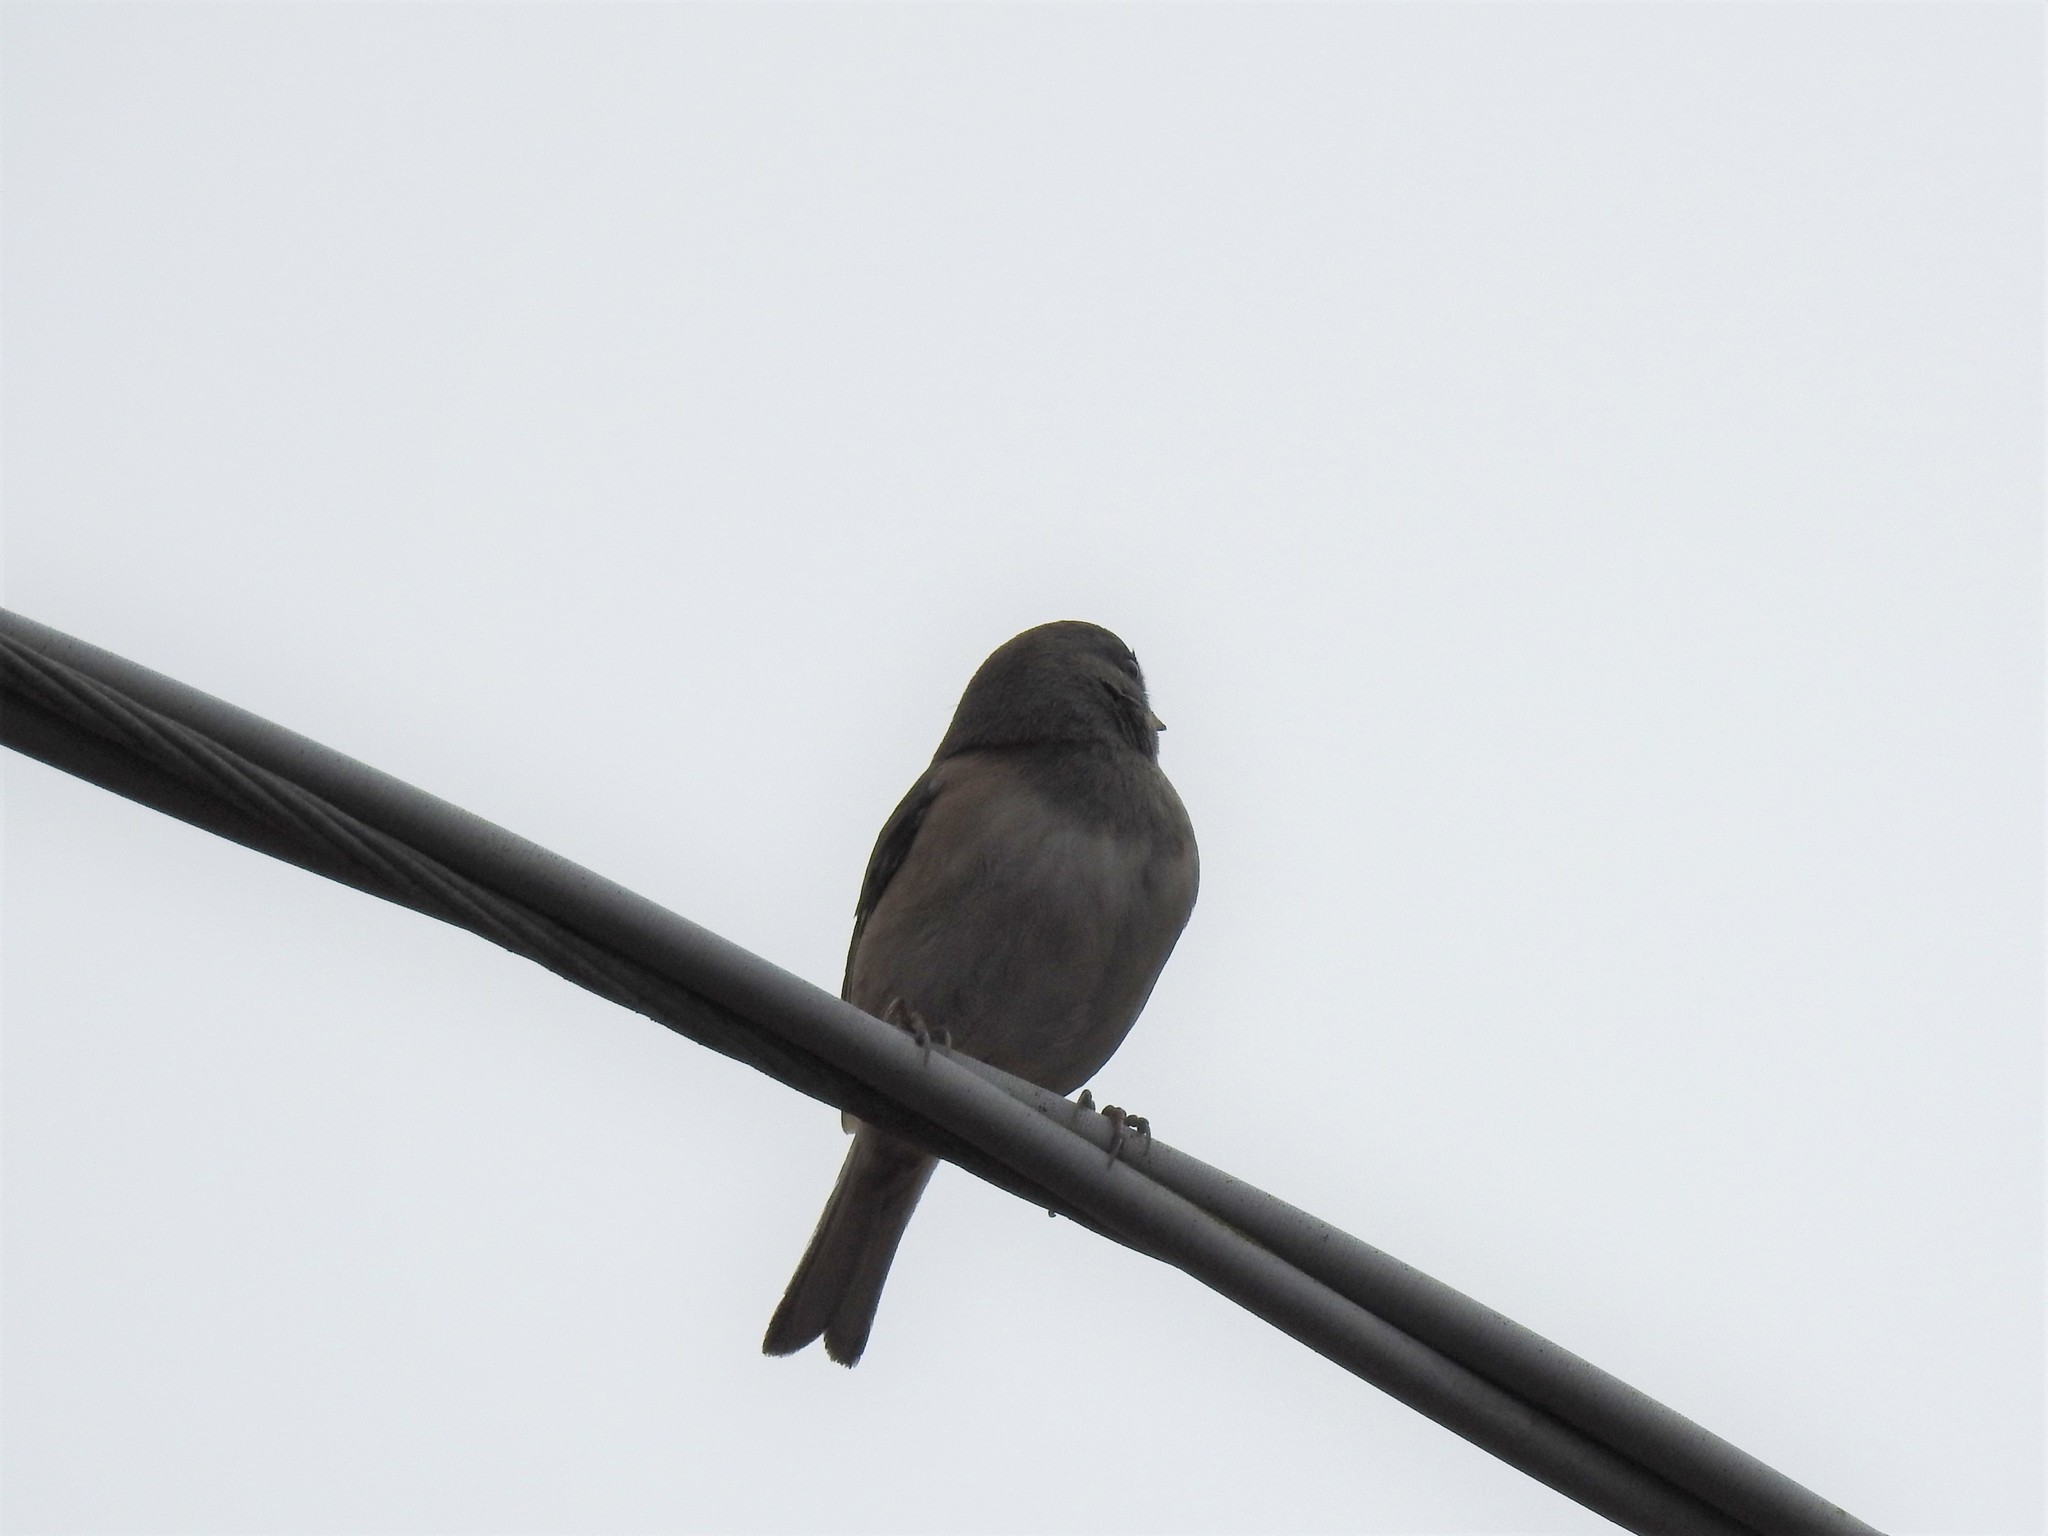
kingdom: Animalia
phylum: Chordata
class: Aves
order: Passeriformes
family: Passerellidae
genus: Junco
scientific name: Junco hyemalis
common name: Dark-eyed junco
